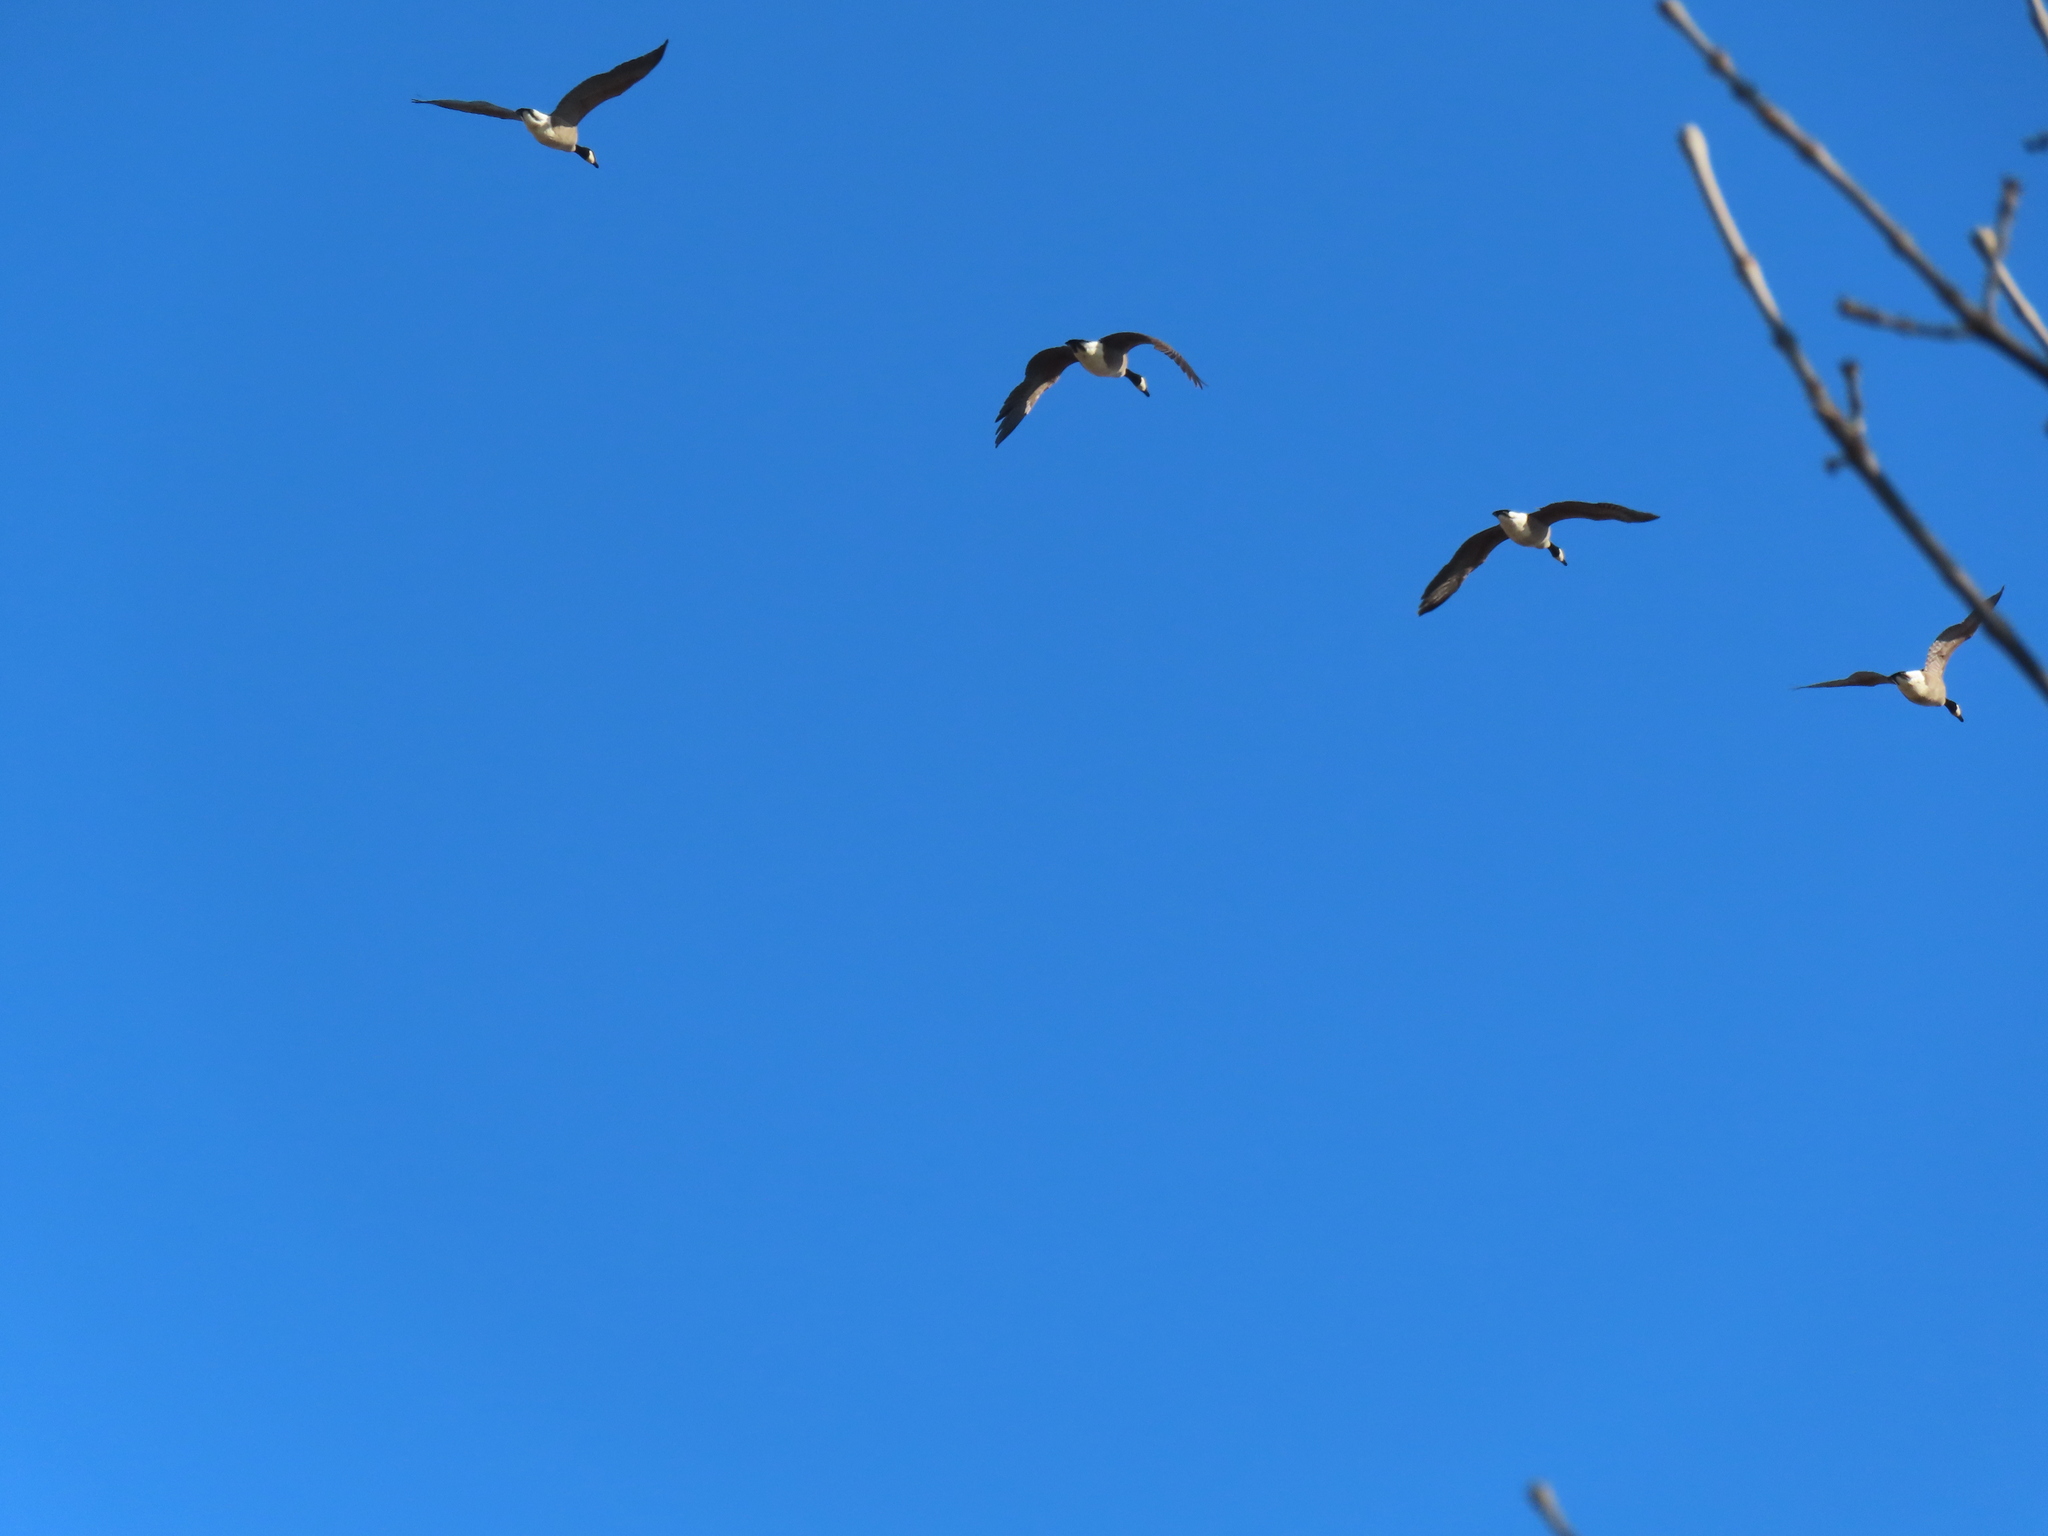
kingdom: Animalia
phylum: Chordata
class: Aves
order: Anseriformes
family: Anatidae
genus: Branta
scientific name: Branta canadensis
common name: Canada goose
